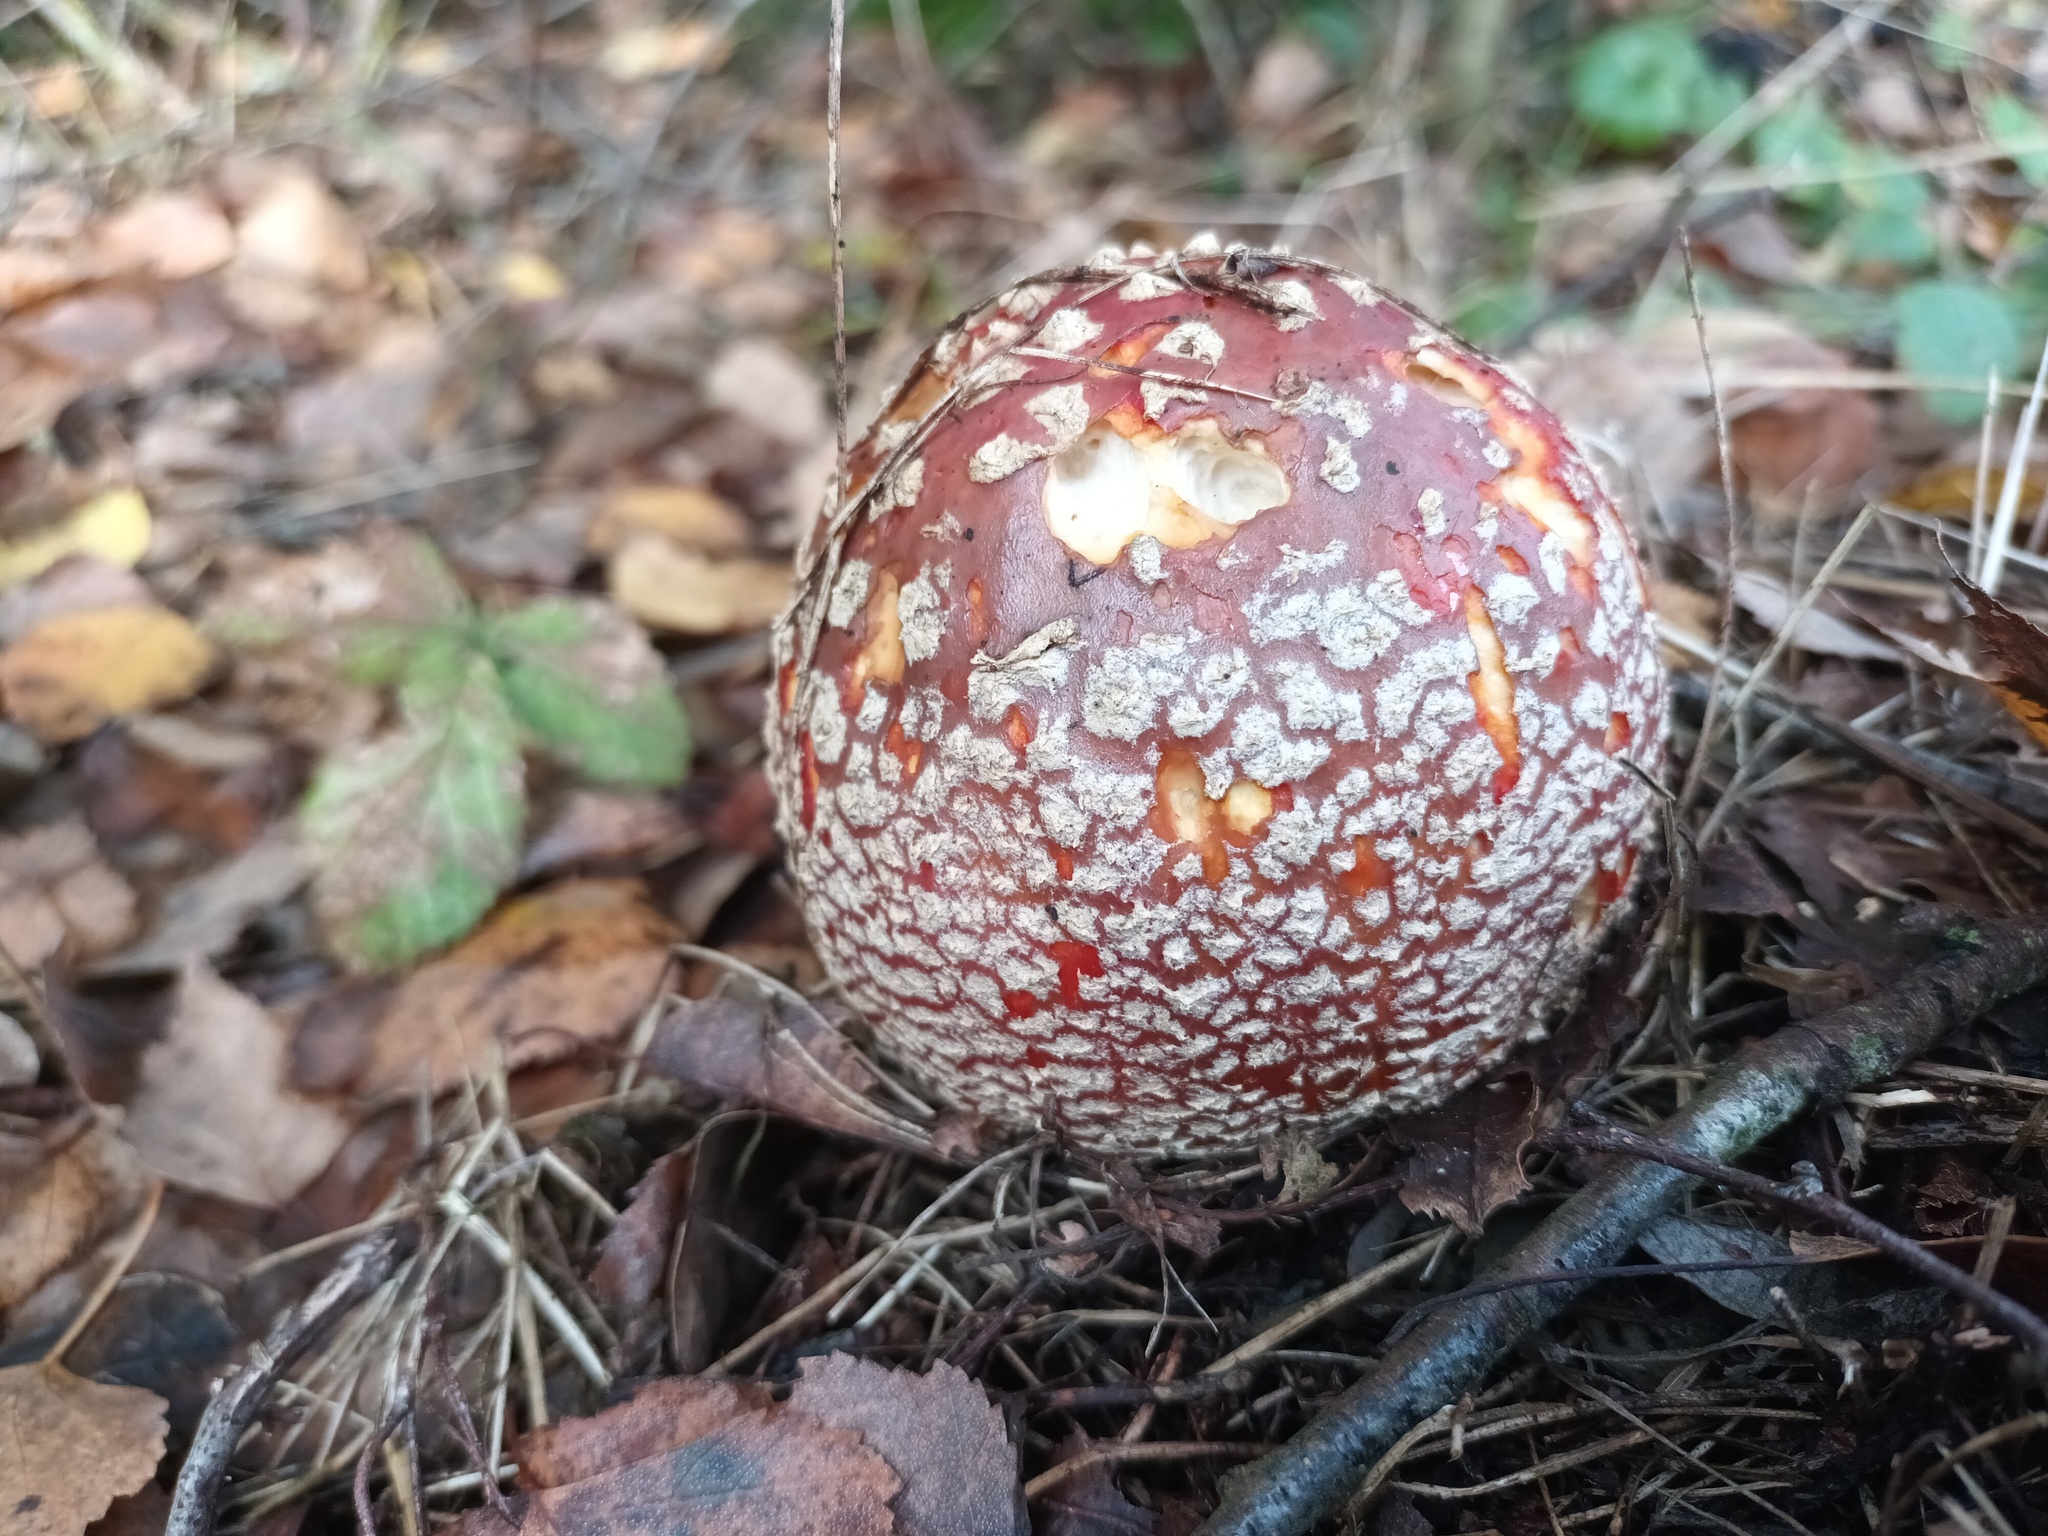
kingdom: Fungi
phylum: Basidiomycota
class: Agaricomycetes
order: Agaricales
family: Amanitaceae
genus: Amanita
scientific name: Amanita muscaria
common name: Fly agaric
